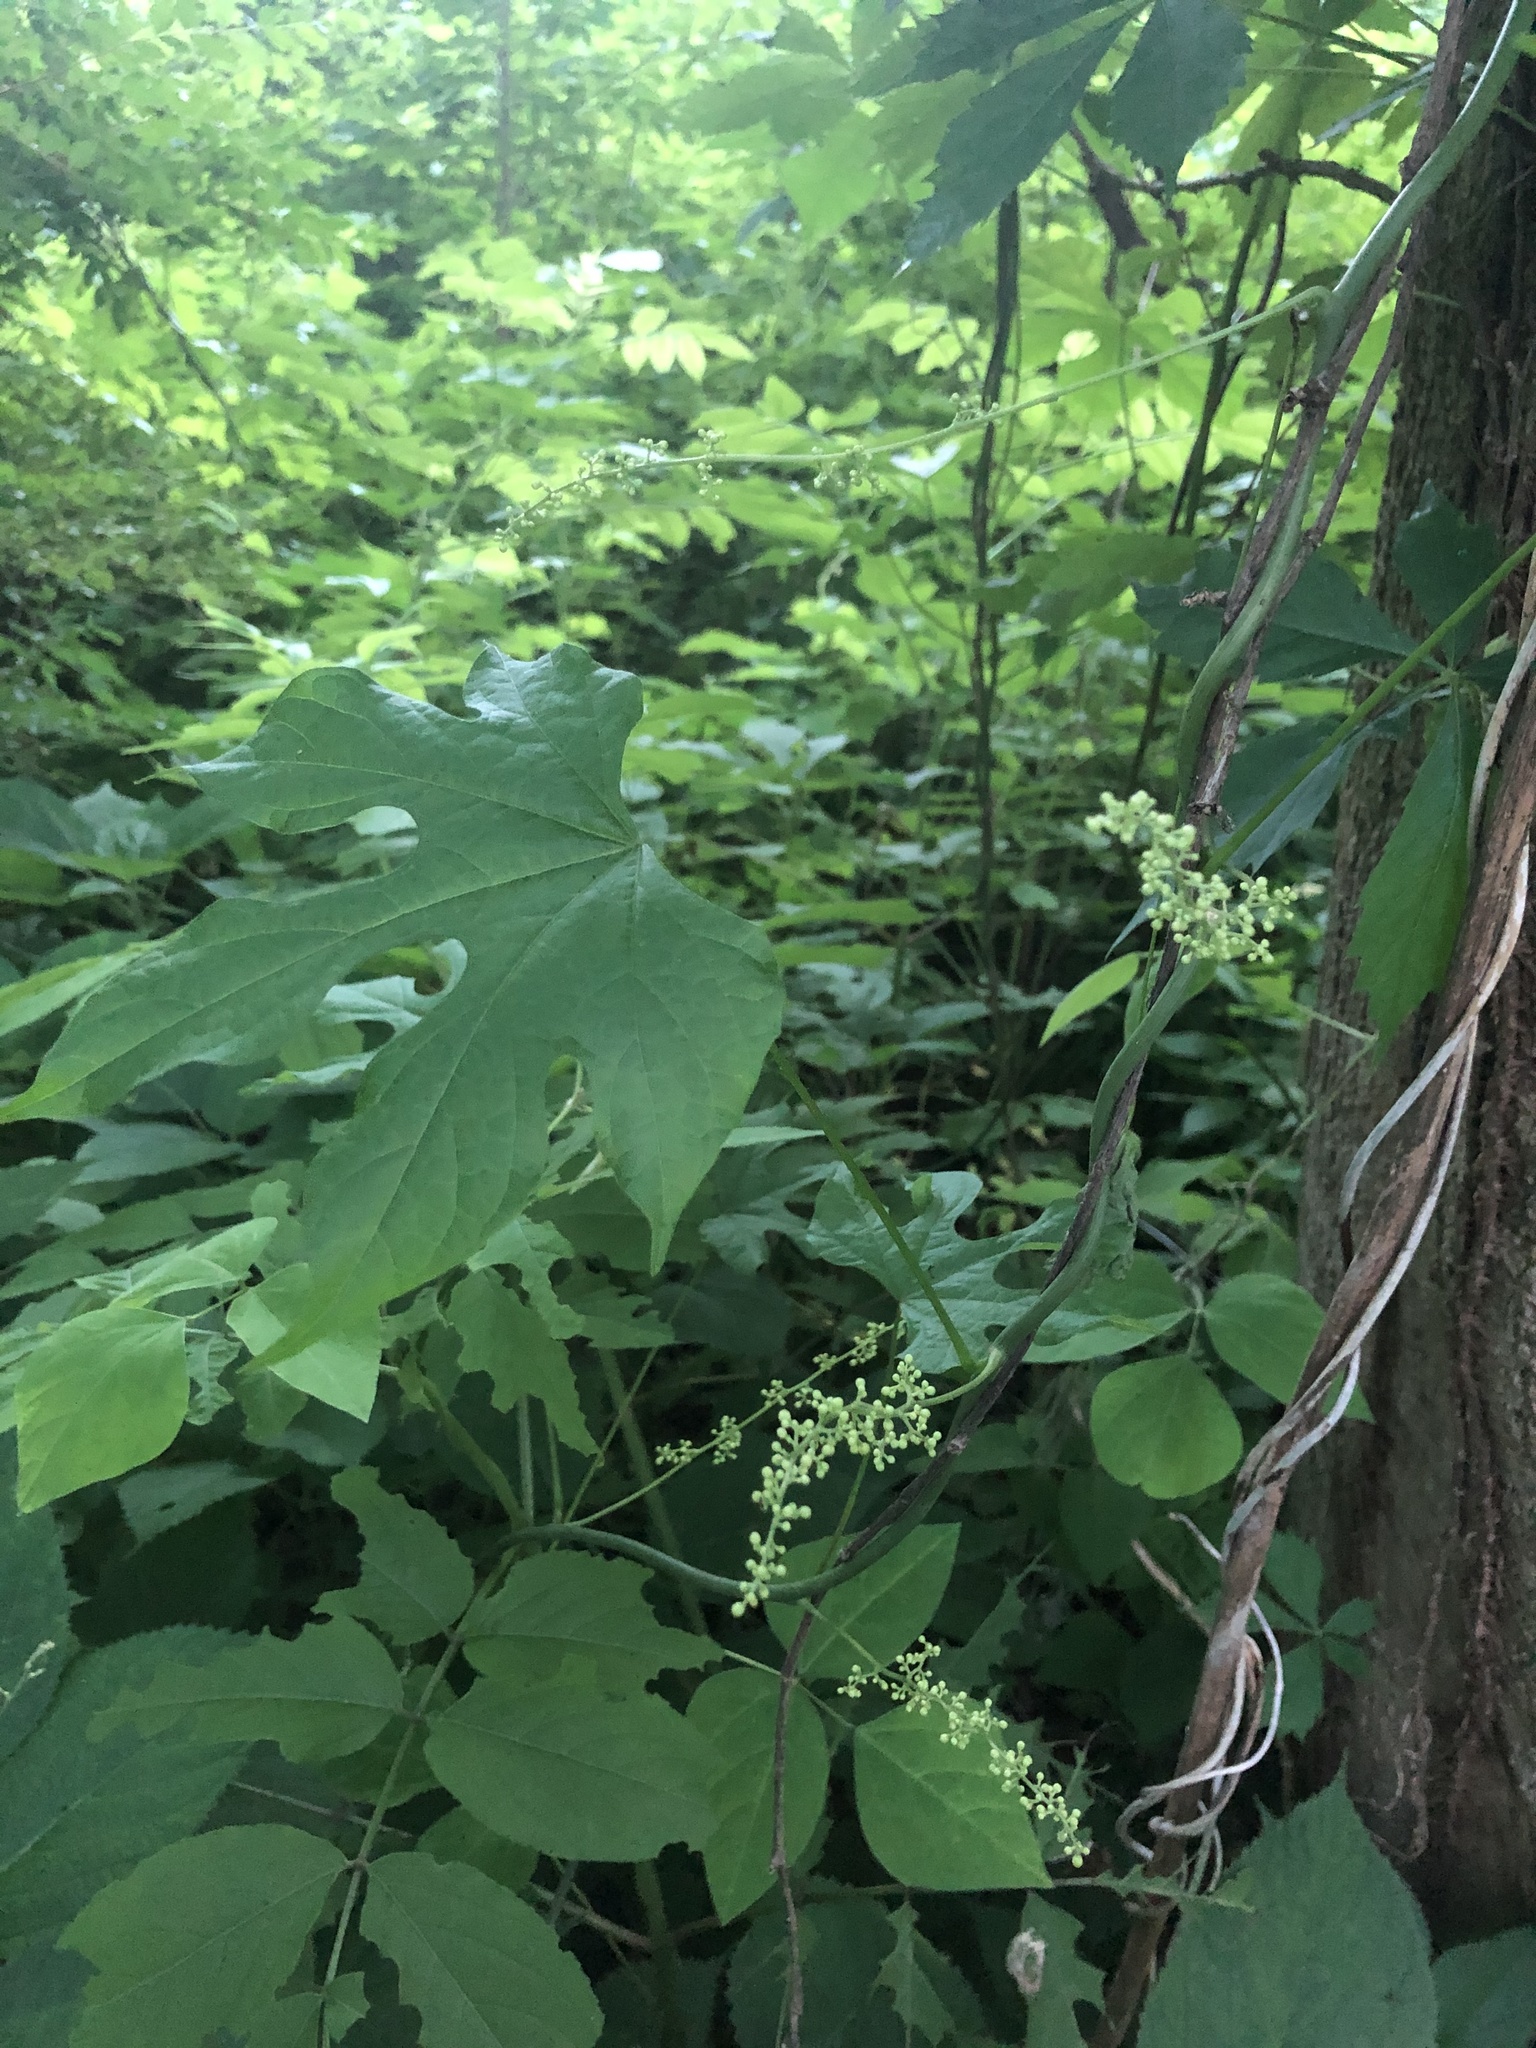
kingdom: Plantae
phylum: Tracheophyta
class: Magnoliopsida
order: Ranunculales
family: Menispermaceae
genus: Calycocarpum
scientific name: Calycocarpum lyonii
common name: Cupseed
